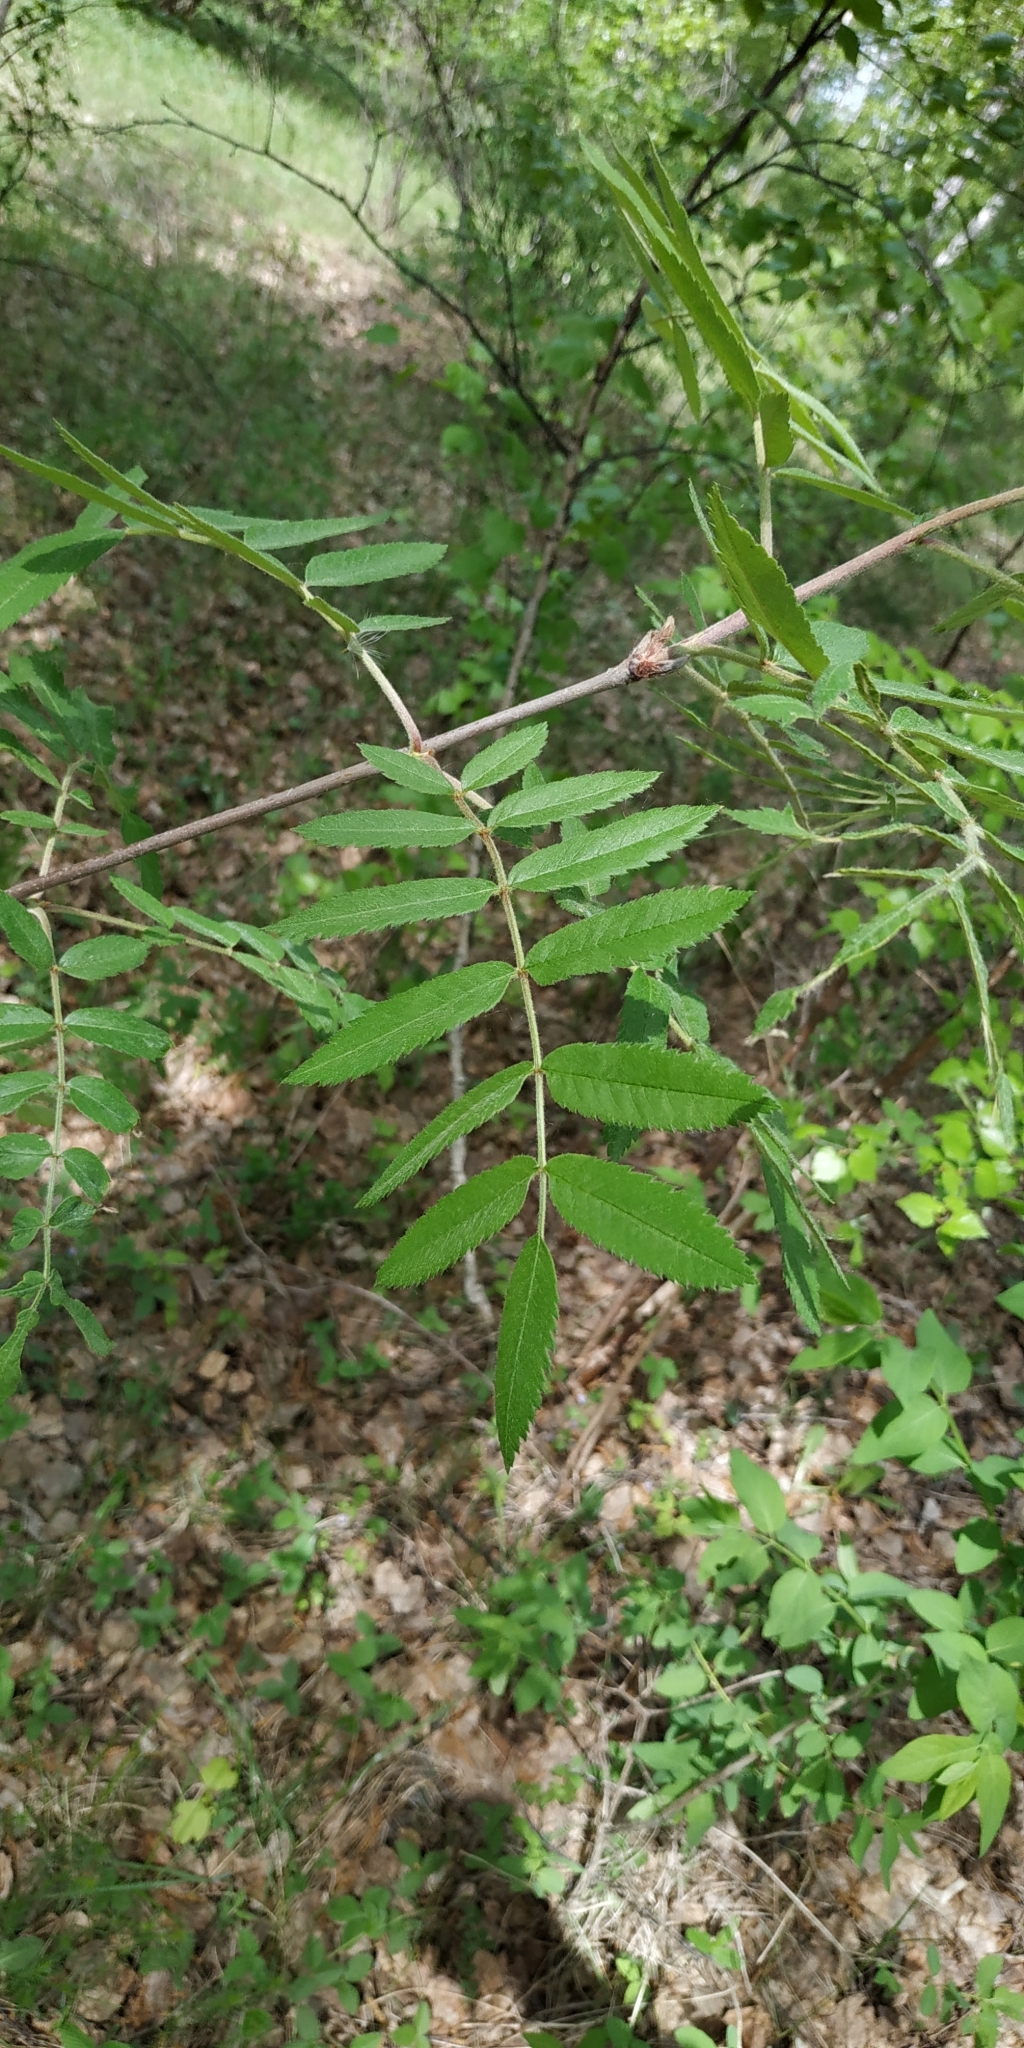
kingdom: Plantae
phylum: Tracheophyta
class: Magnoliopsida
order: Rosales
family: Rosaceae
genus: Sorbus
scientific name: Sorbus aucuparia
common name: Rowan
